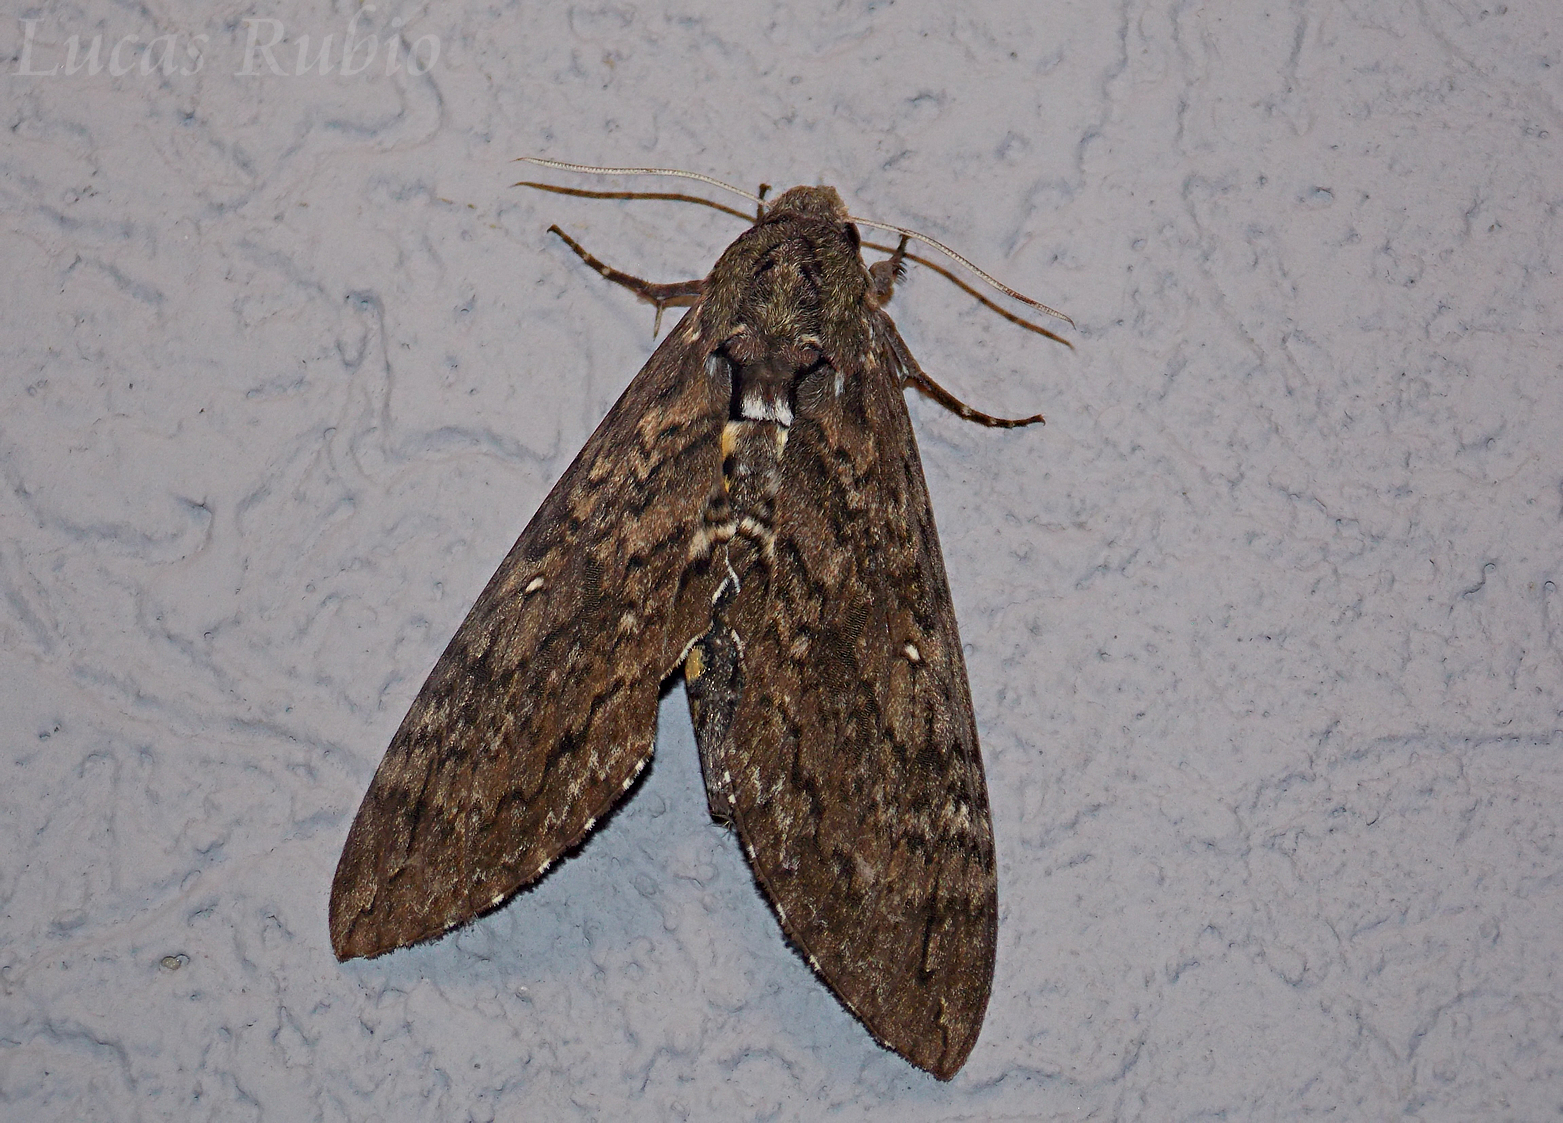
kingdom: Animalia
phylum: Arthropoda
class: Insecta
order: Lepidoptera
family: Sphingidae
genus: Manduca
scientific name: Manduca afflicta
